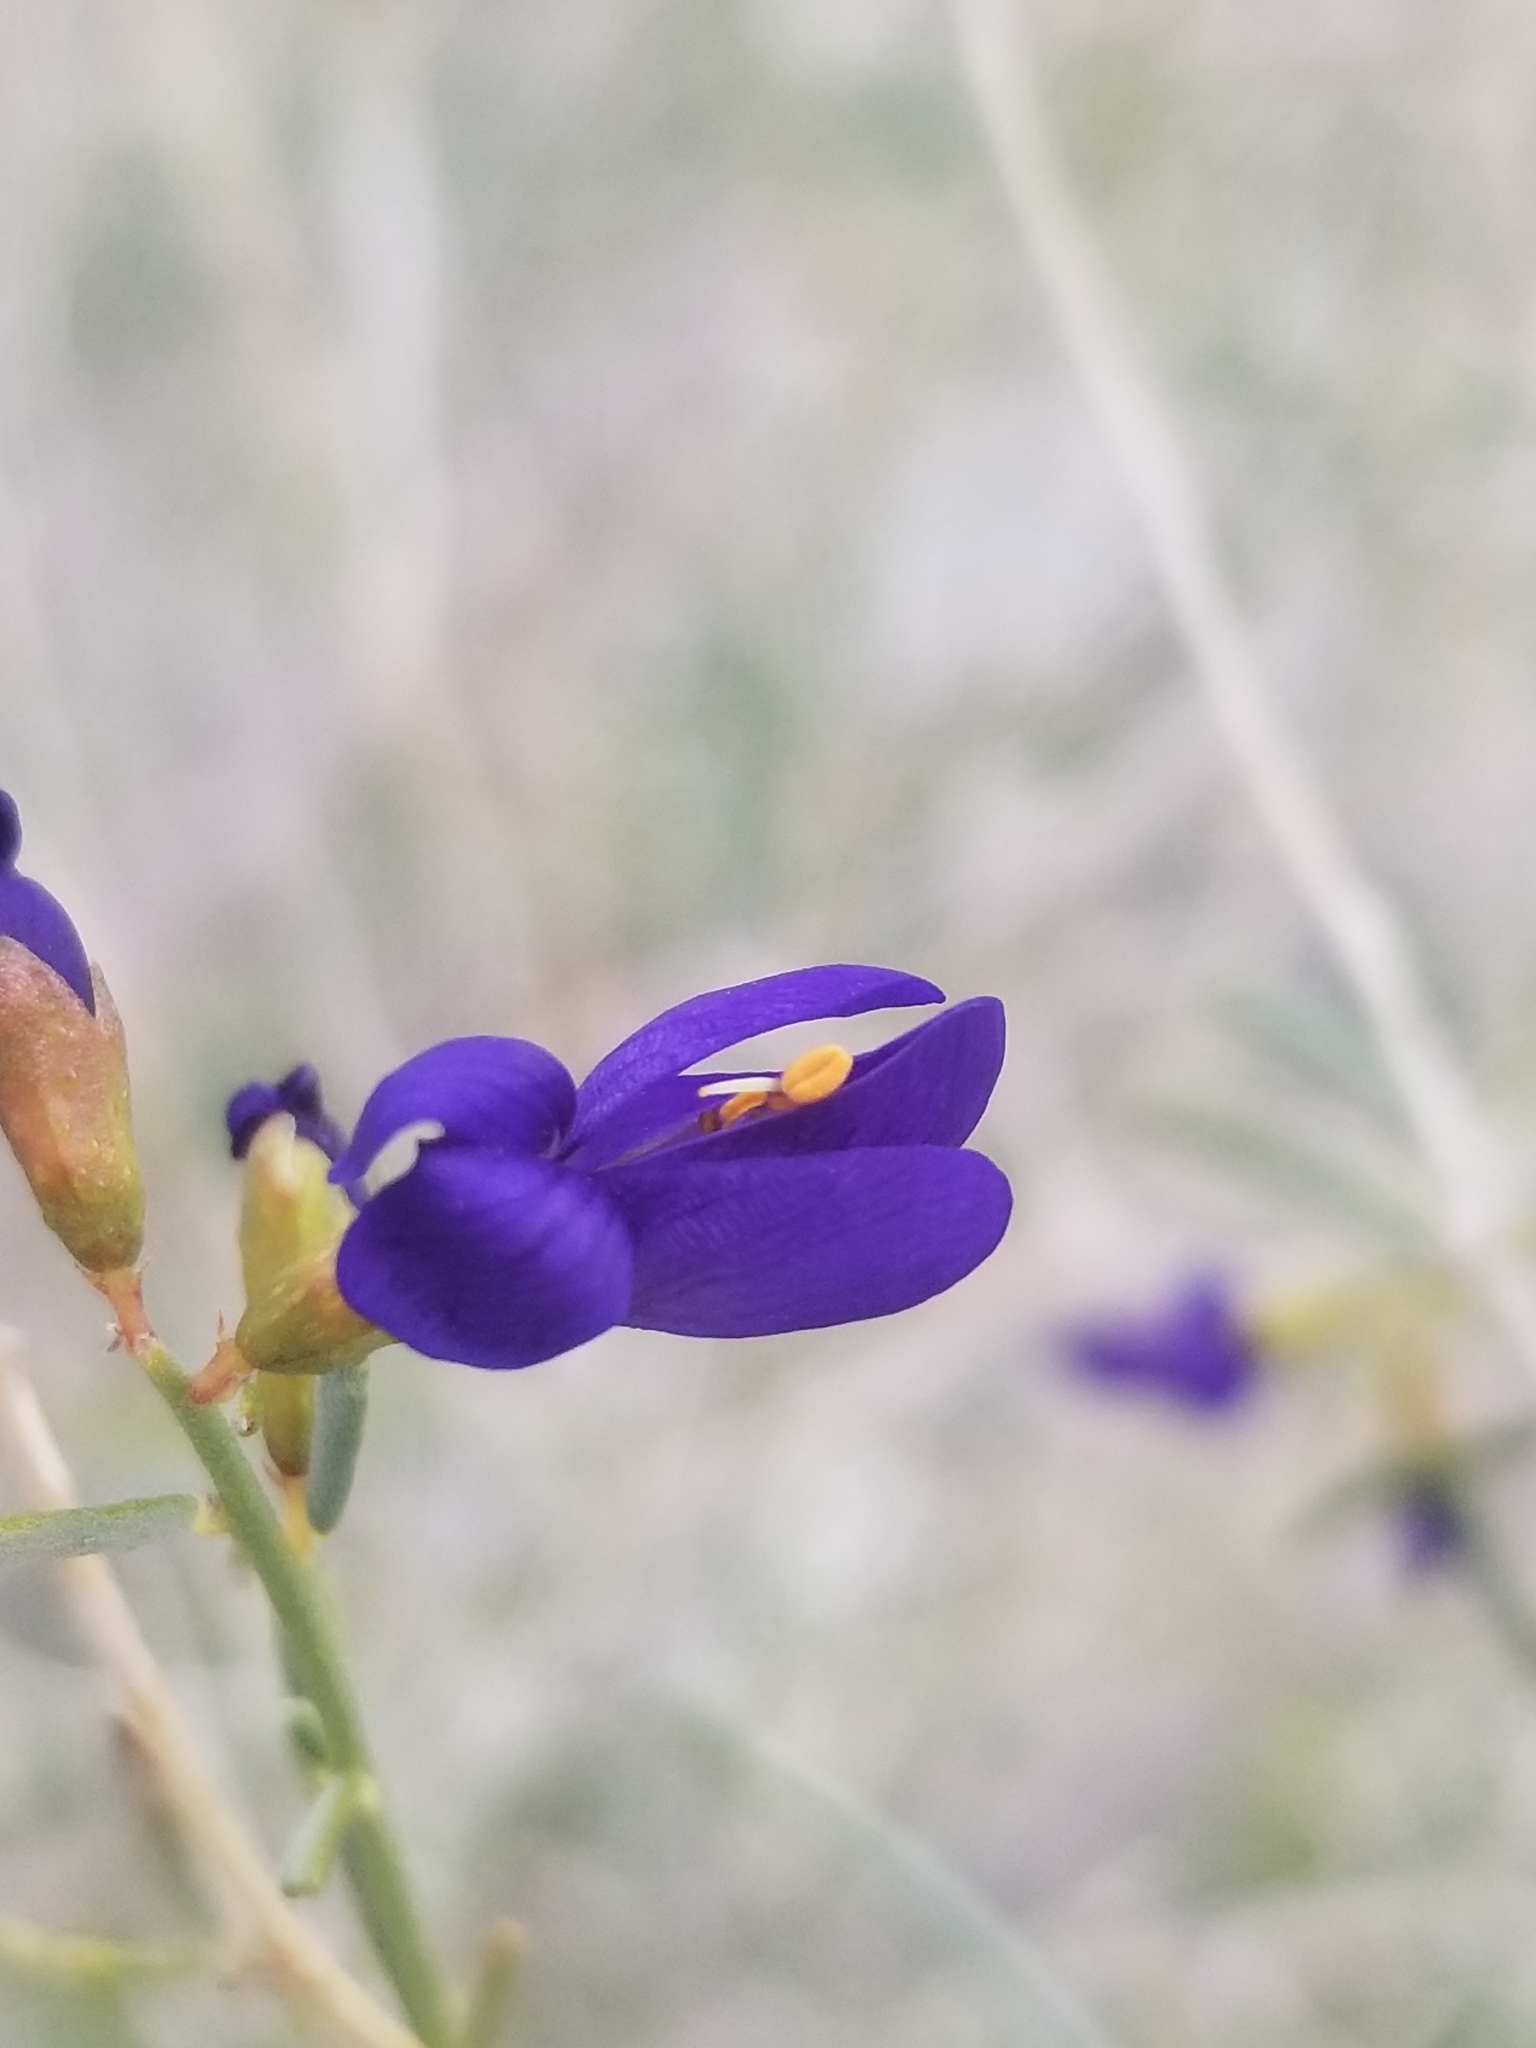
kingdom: Plantae
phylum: Tracheophyta
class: Magnoliopsida
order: Fabales
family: Fabaceae
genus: Psorothamnus
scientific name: Psorothamnus schottii
